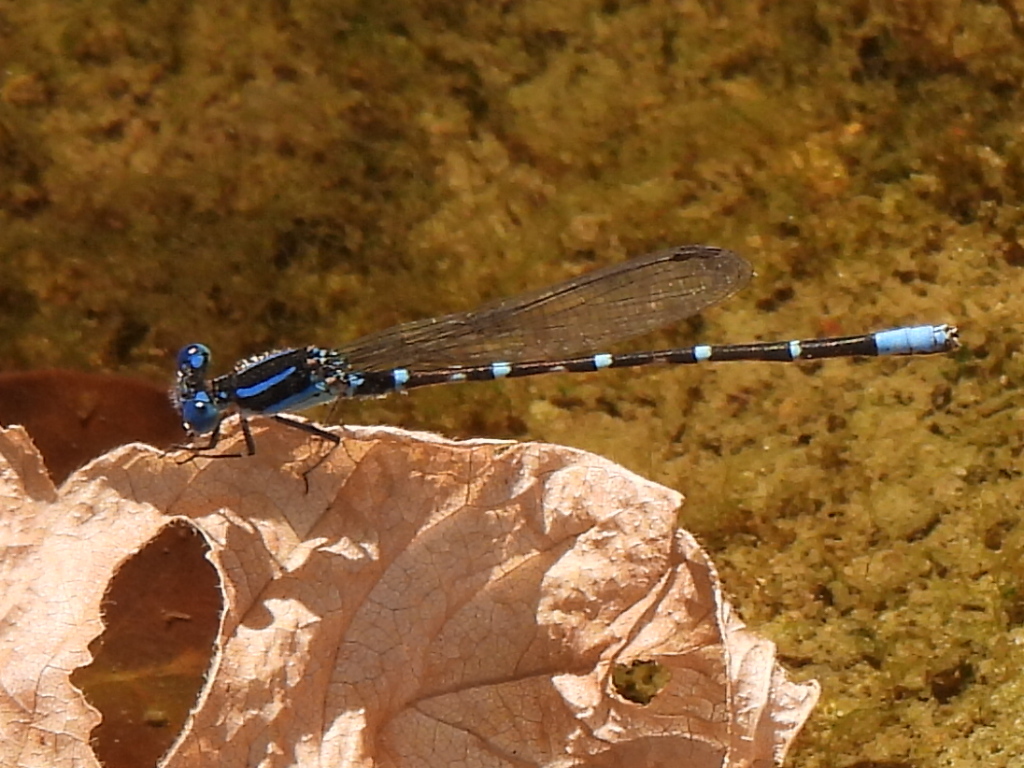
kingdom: Animalia
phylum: Arthropoda
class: Insecta
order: Odonata
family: Coenagrionidae
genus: Argia
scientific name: Argia sedula
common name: Blue-ringed dancer
